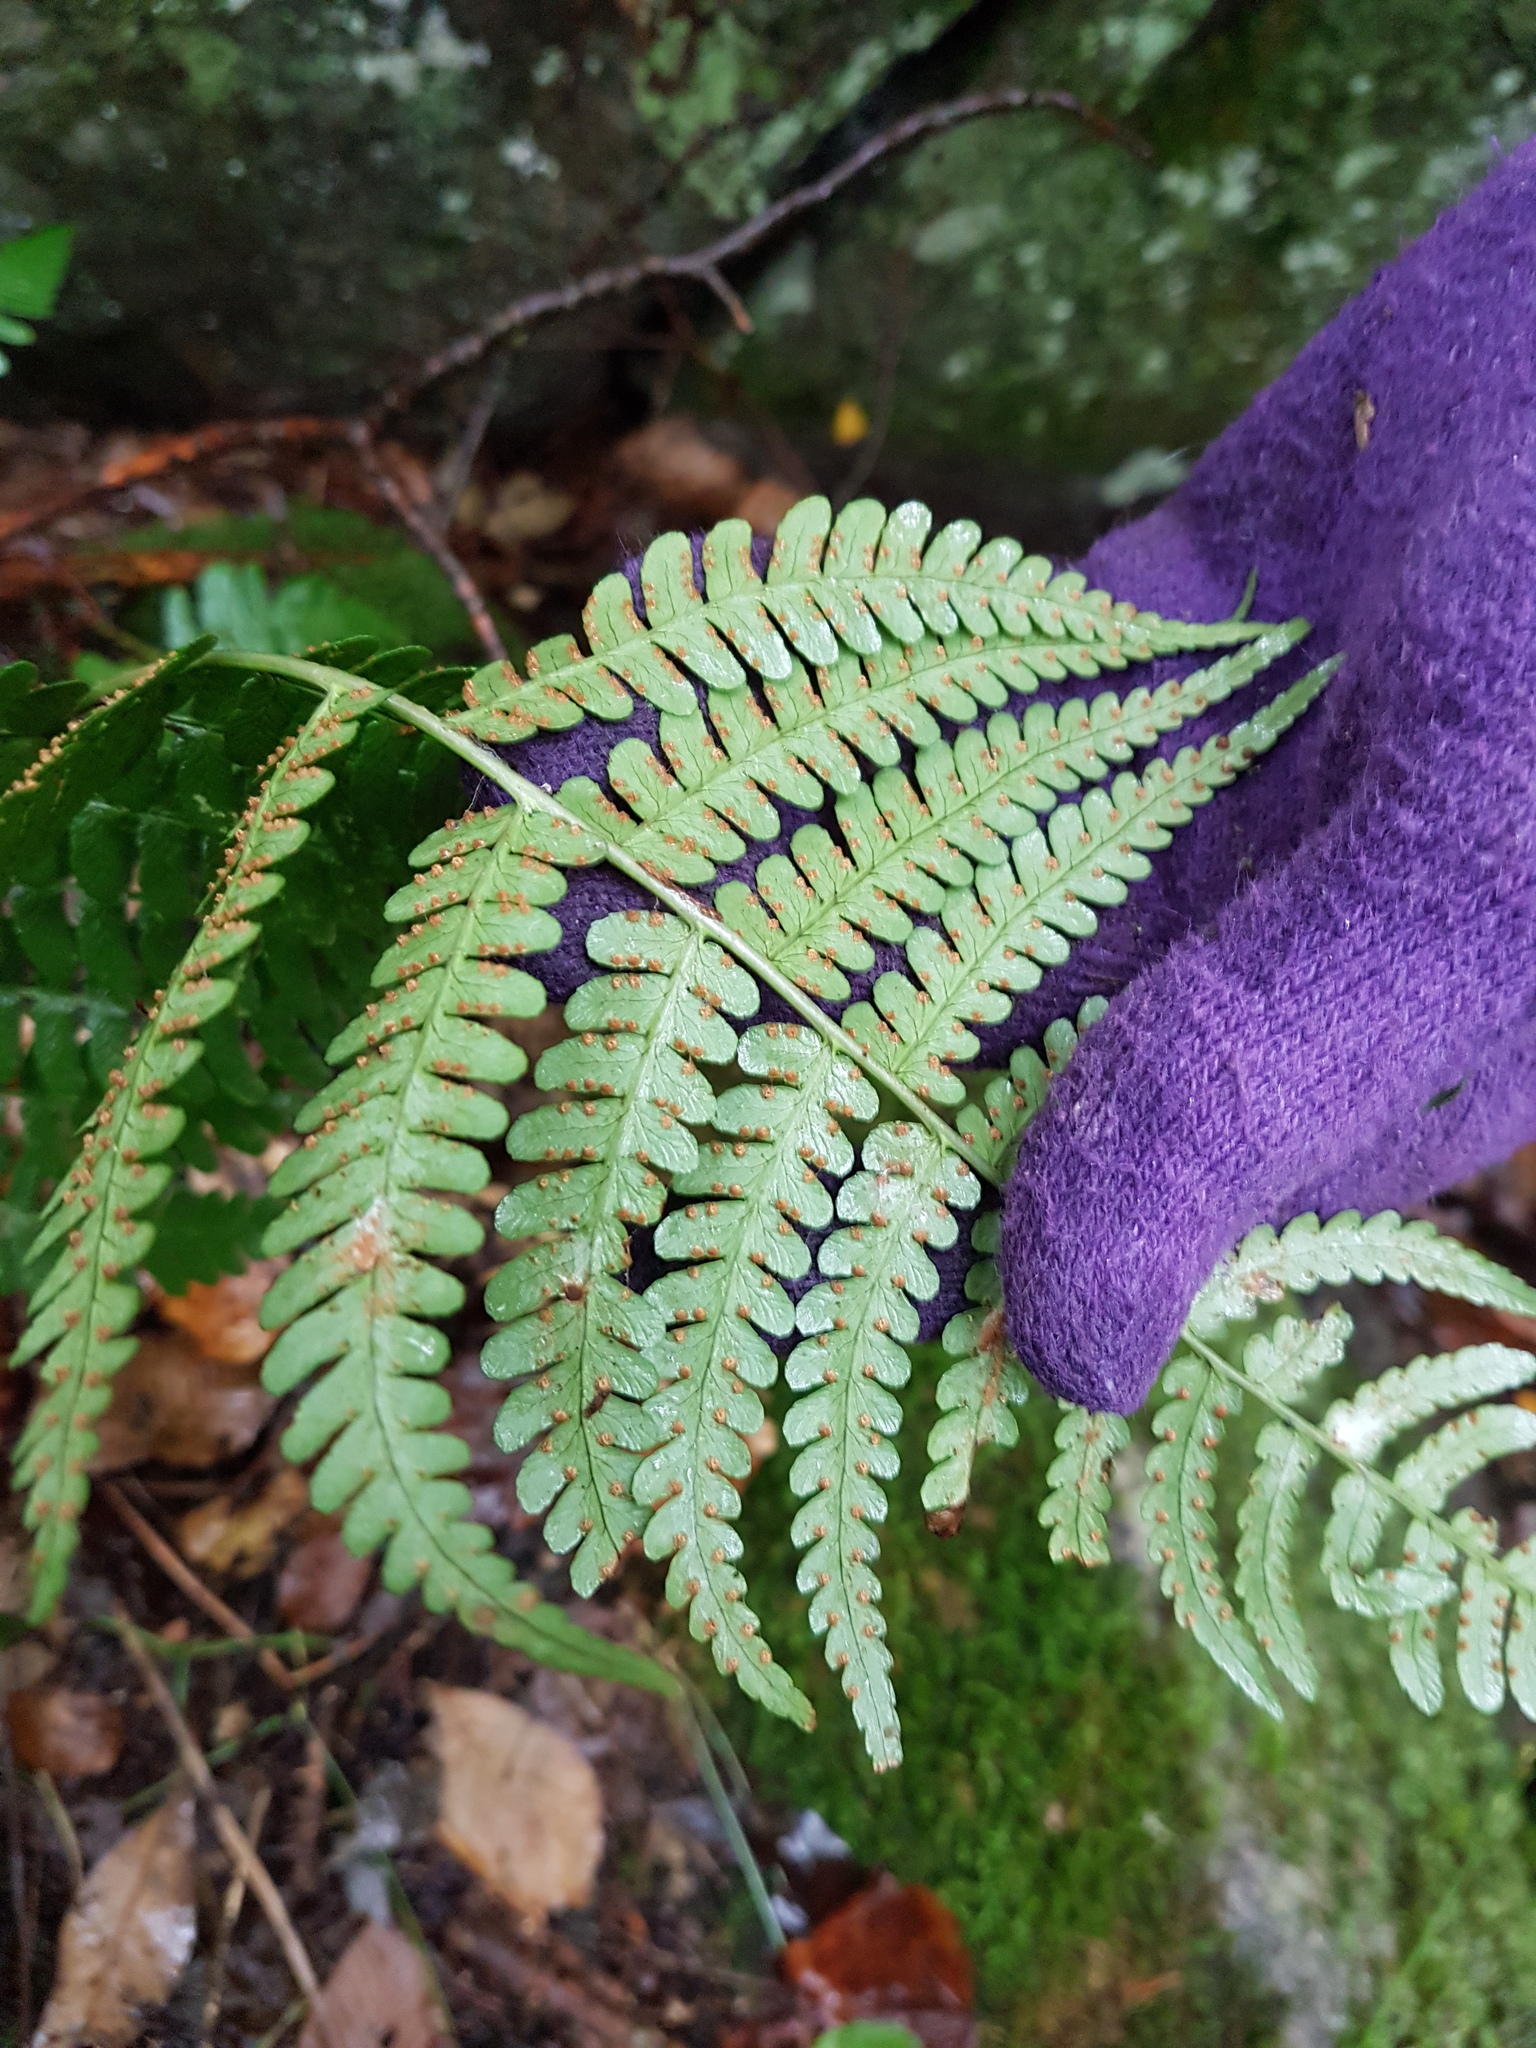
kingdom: Plantae
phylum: Tracheophyta
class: Polypodiopsida
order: Polypodiales
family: Dryopteridaceae
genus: Dryopteris
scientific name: Dryopteris marginalis
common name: Marginal wood fern
